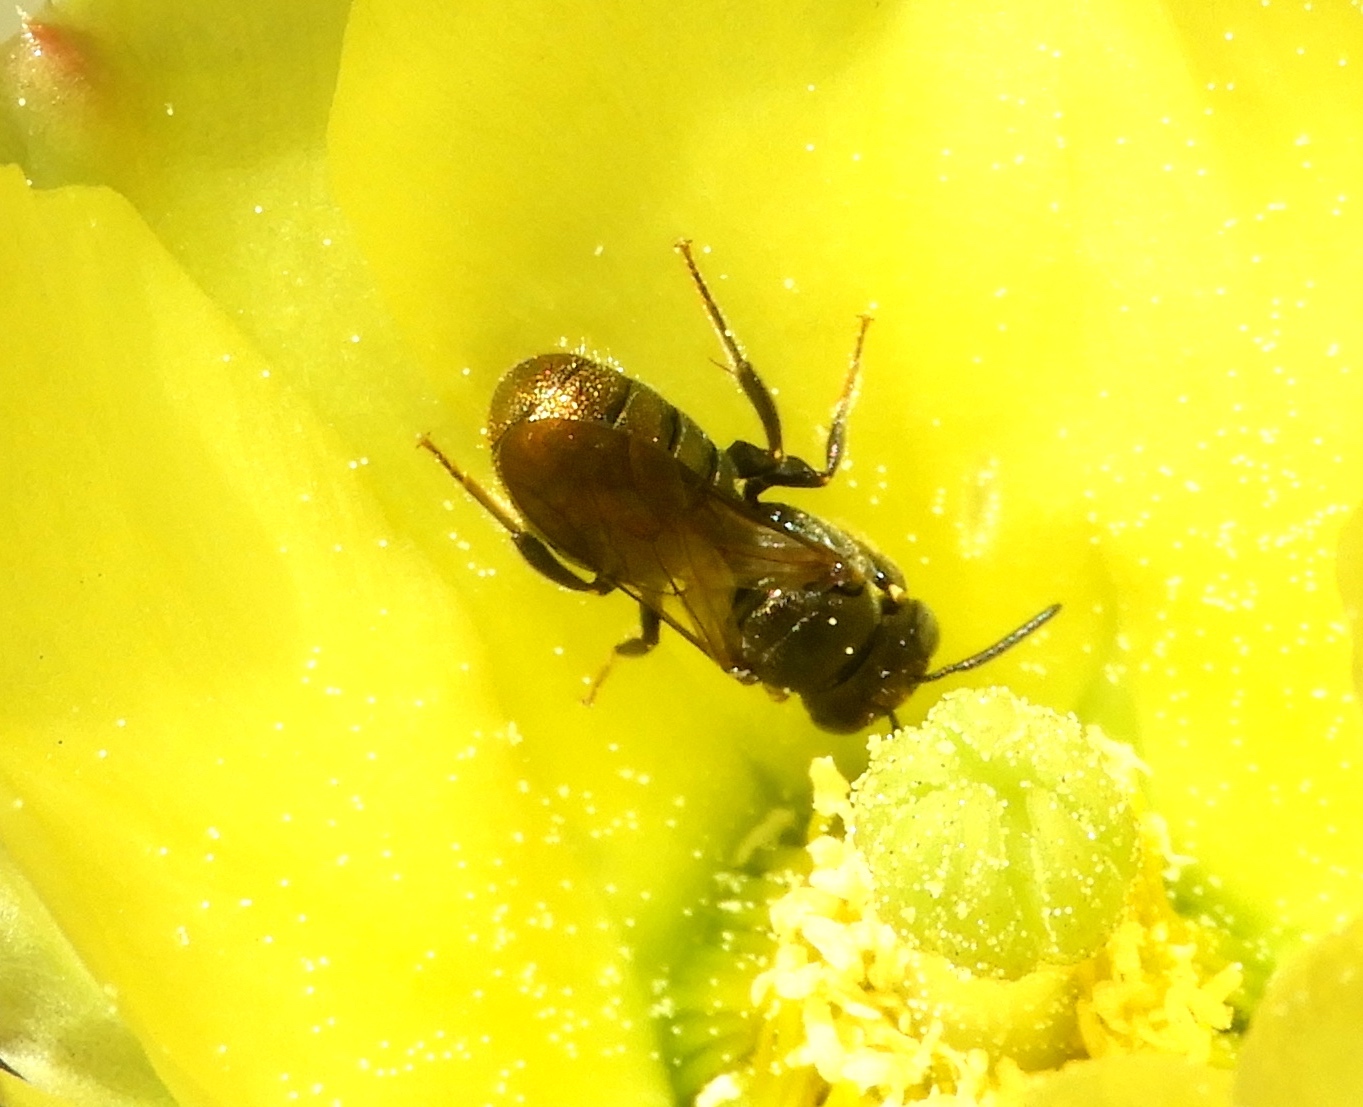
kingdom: Animalia
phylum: Arthropoda
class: Insecta
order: Hymenoptera
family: Apidae
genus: Ceratina
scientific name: Ceratina
